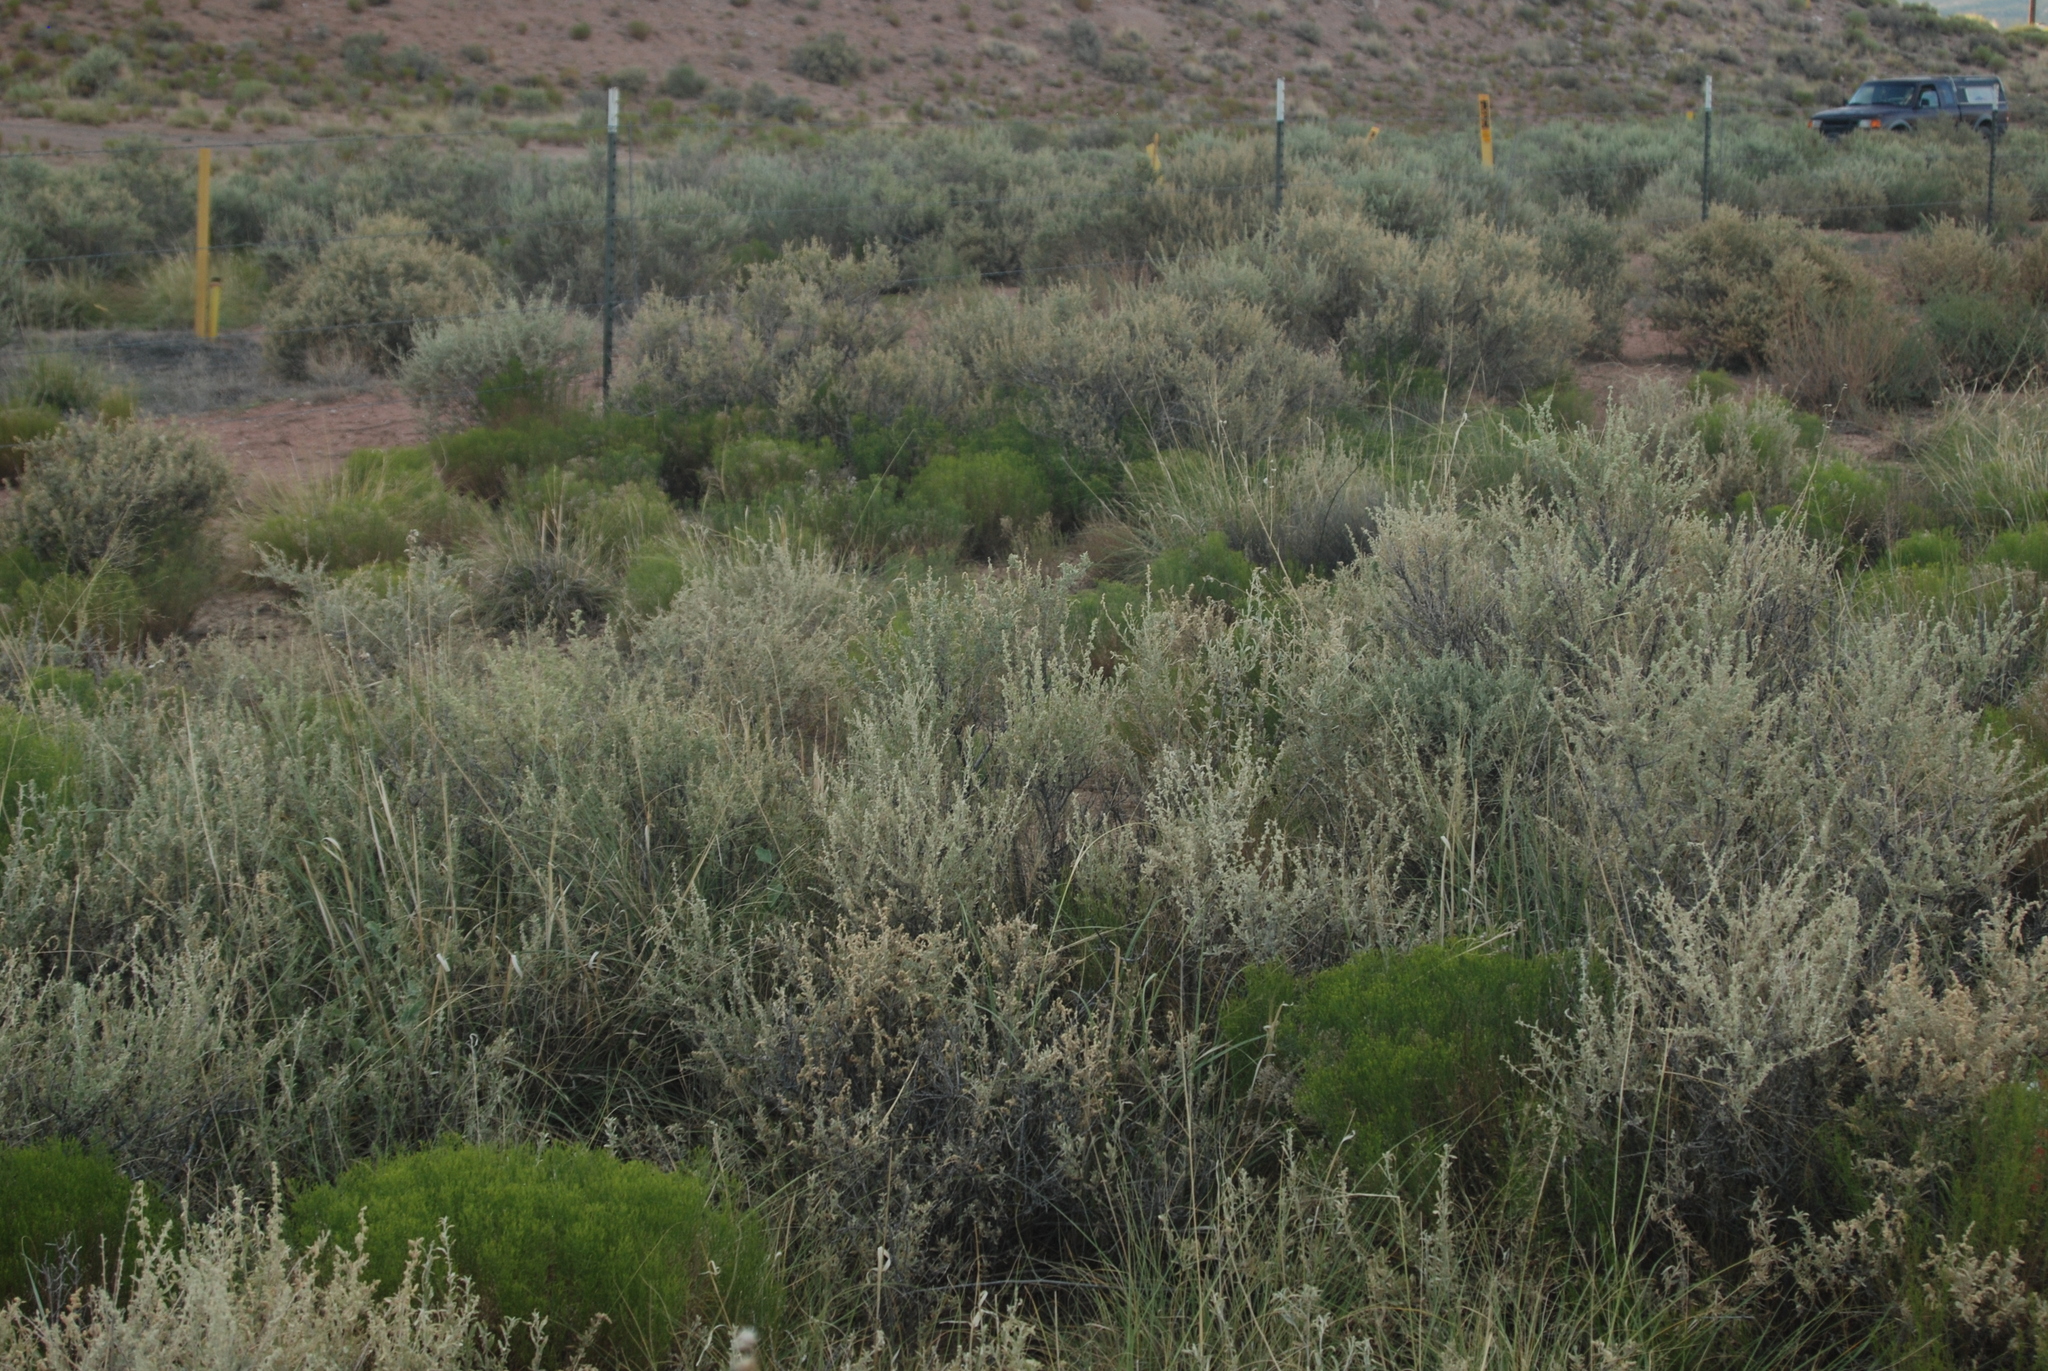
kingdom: Plantae
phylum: Tracheophyta
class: Magnoliopsida
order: Caryophyllales
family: Amaranthaceae
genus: Atriplex
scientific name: Atriplex canescens
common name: Four-wing saltbush
